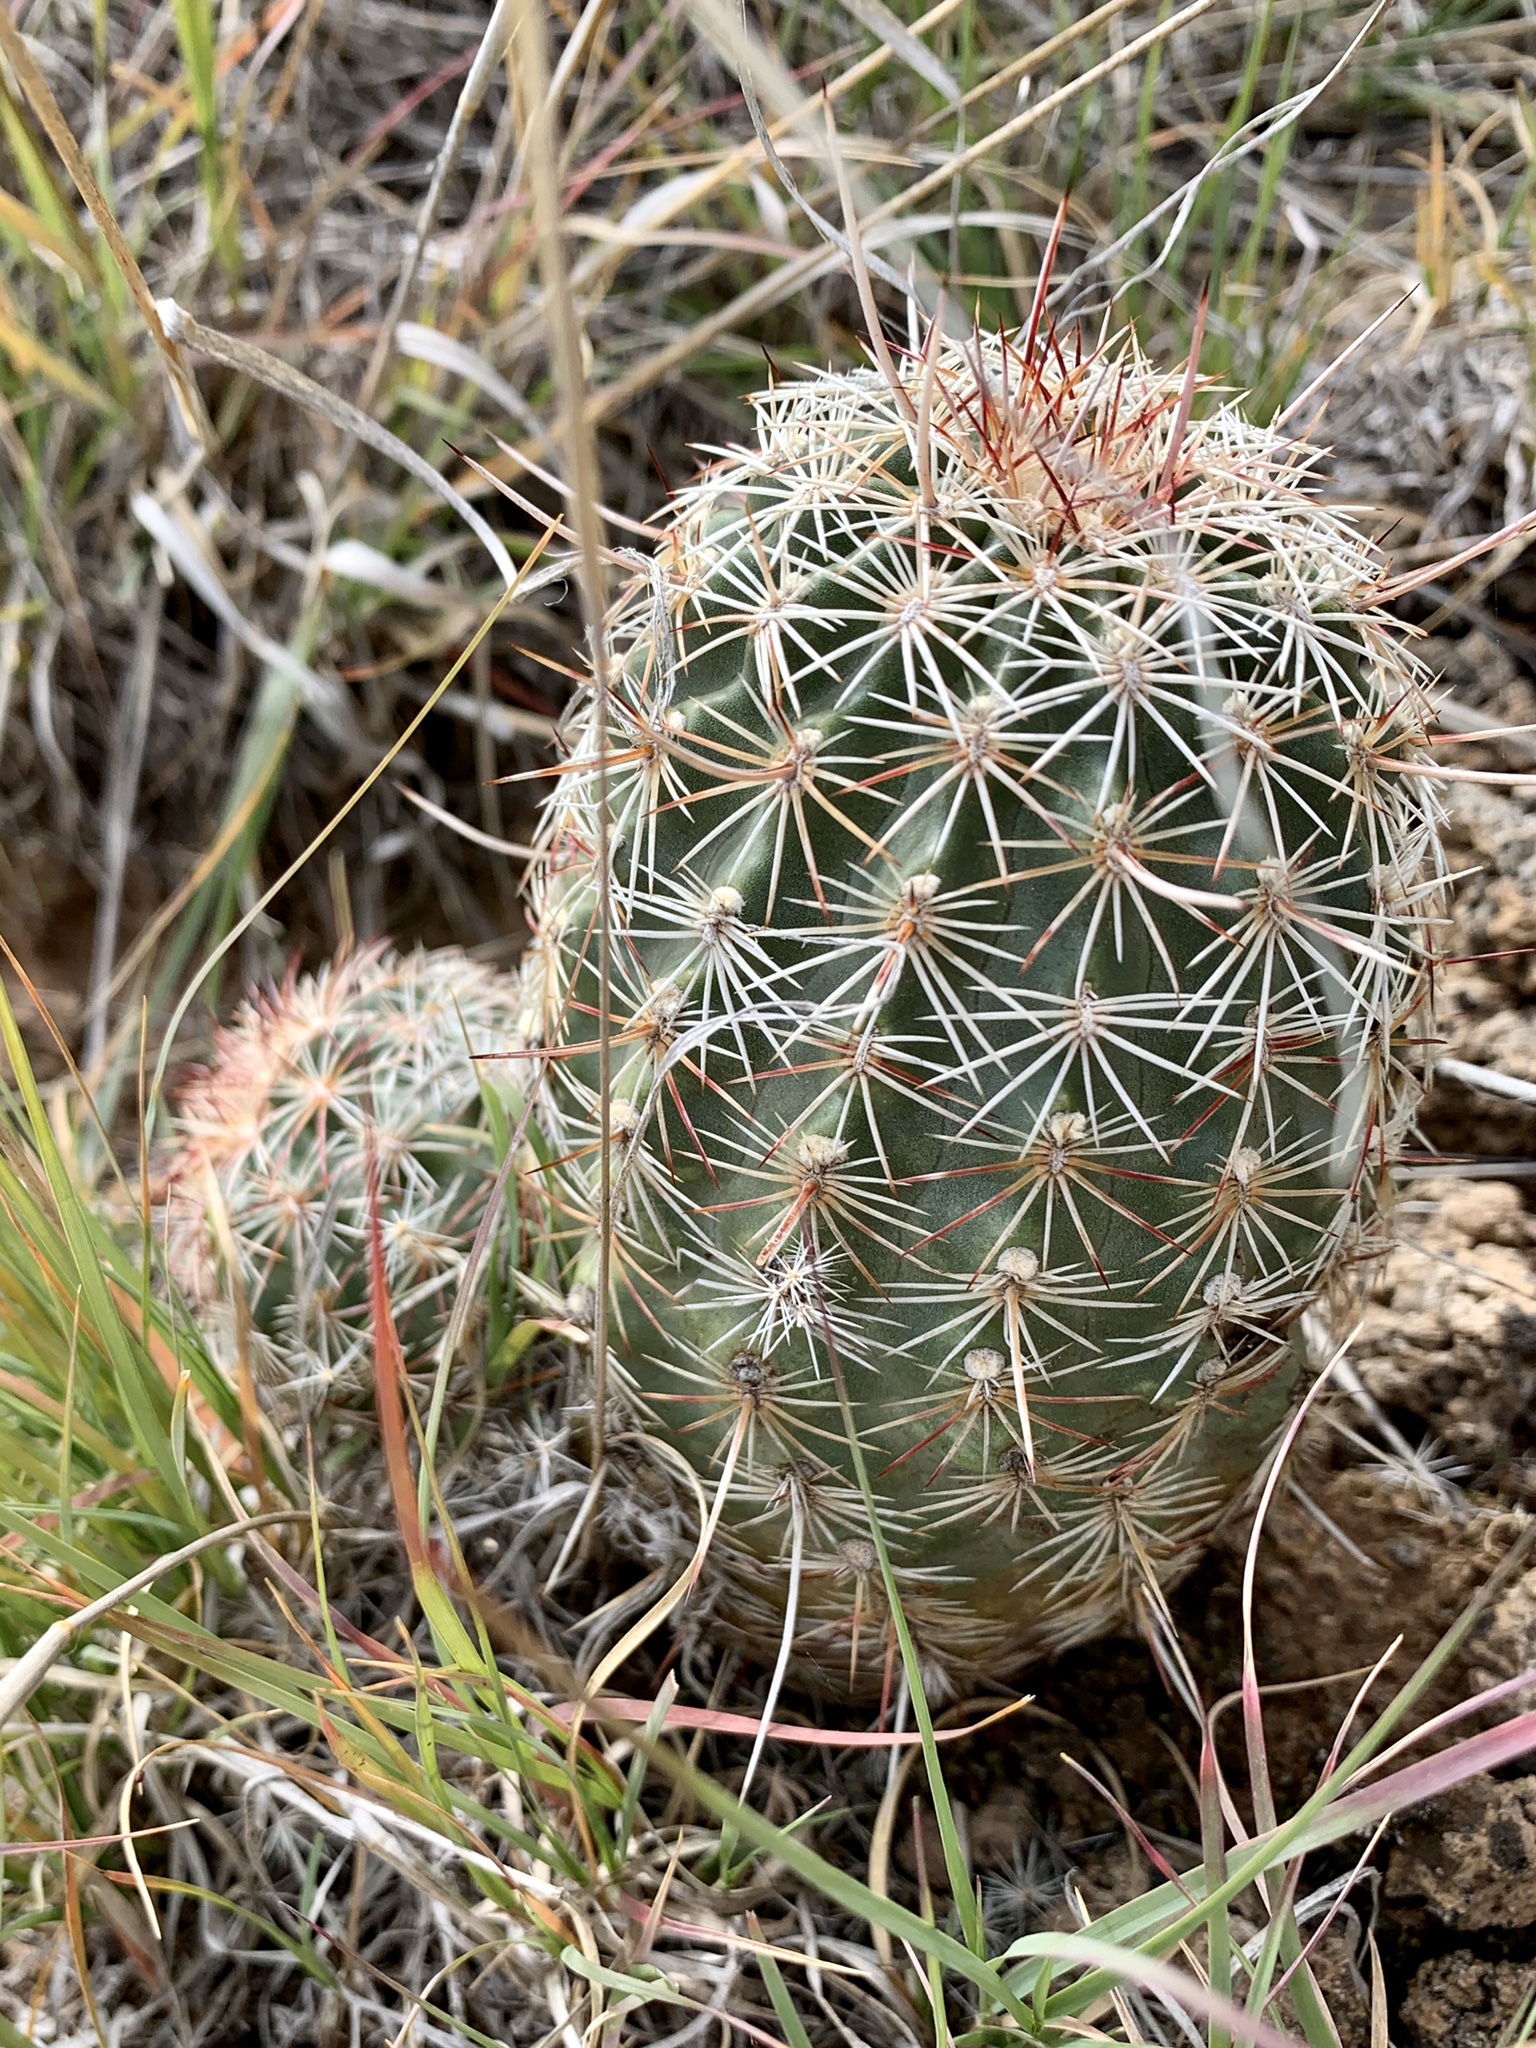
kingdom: Plantae
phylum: Tracheophyta
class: Magnoliopsida
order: Caryophyllales
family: Cactaceae
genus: Echinocereus
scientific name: Echinocereus viridiflorus
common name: Nylon hedgehog cactus
